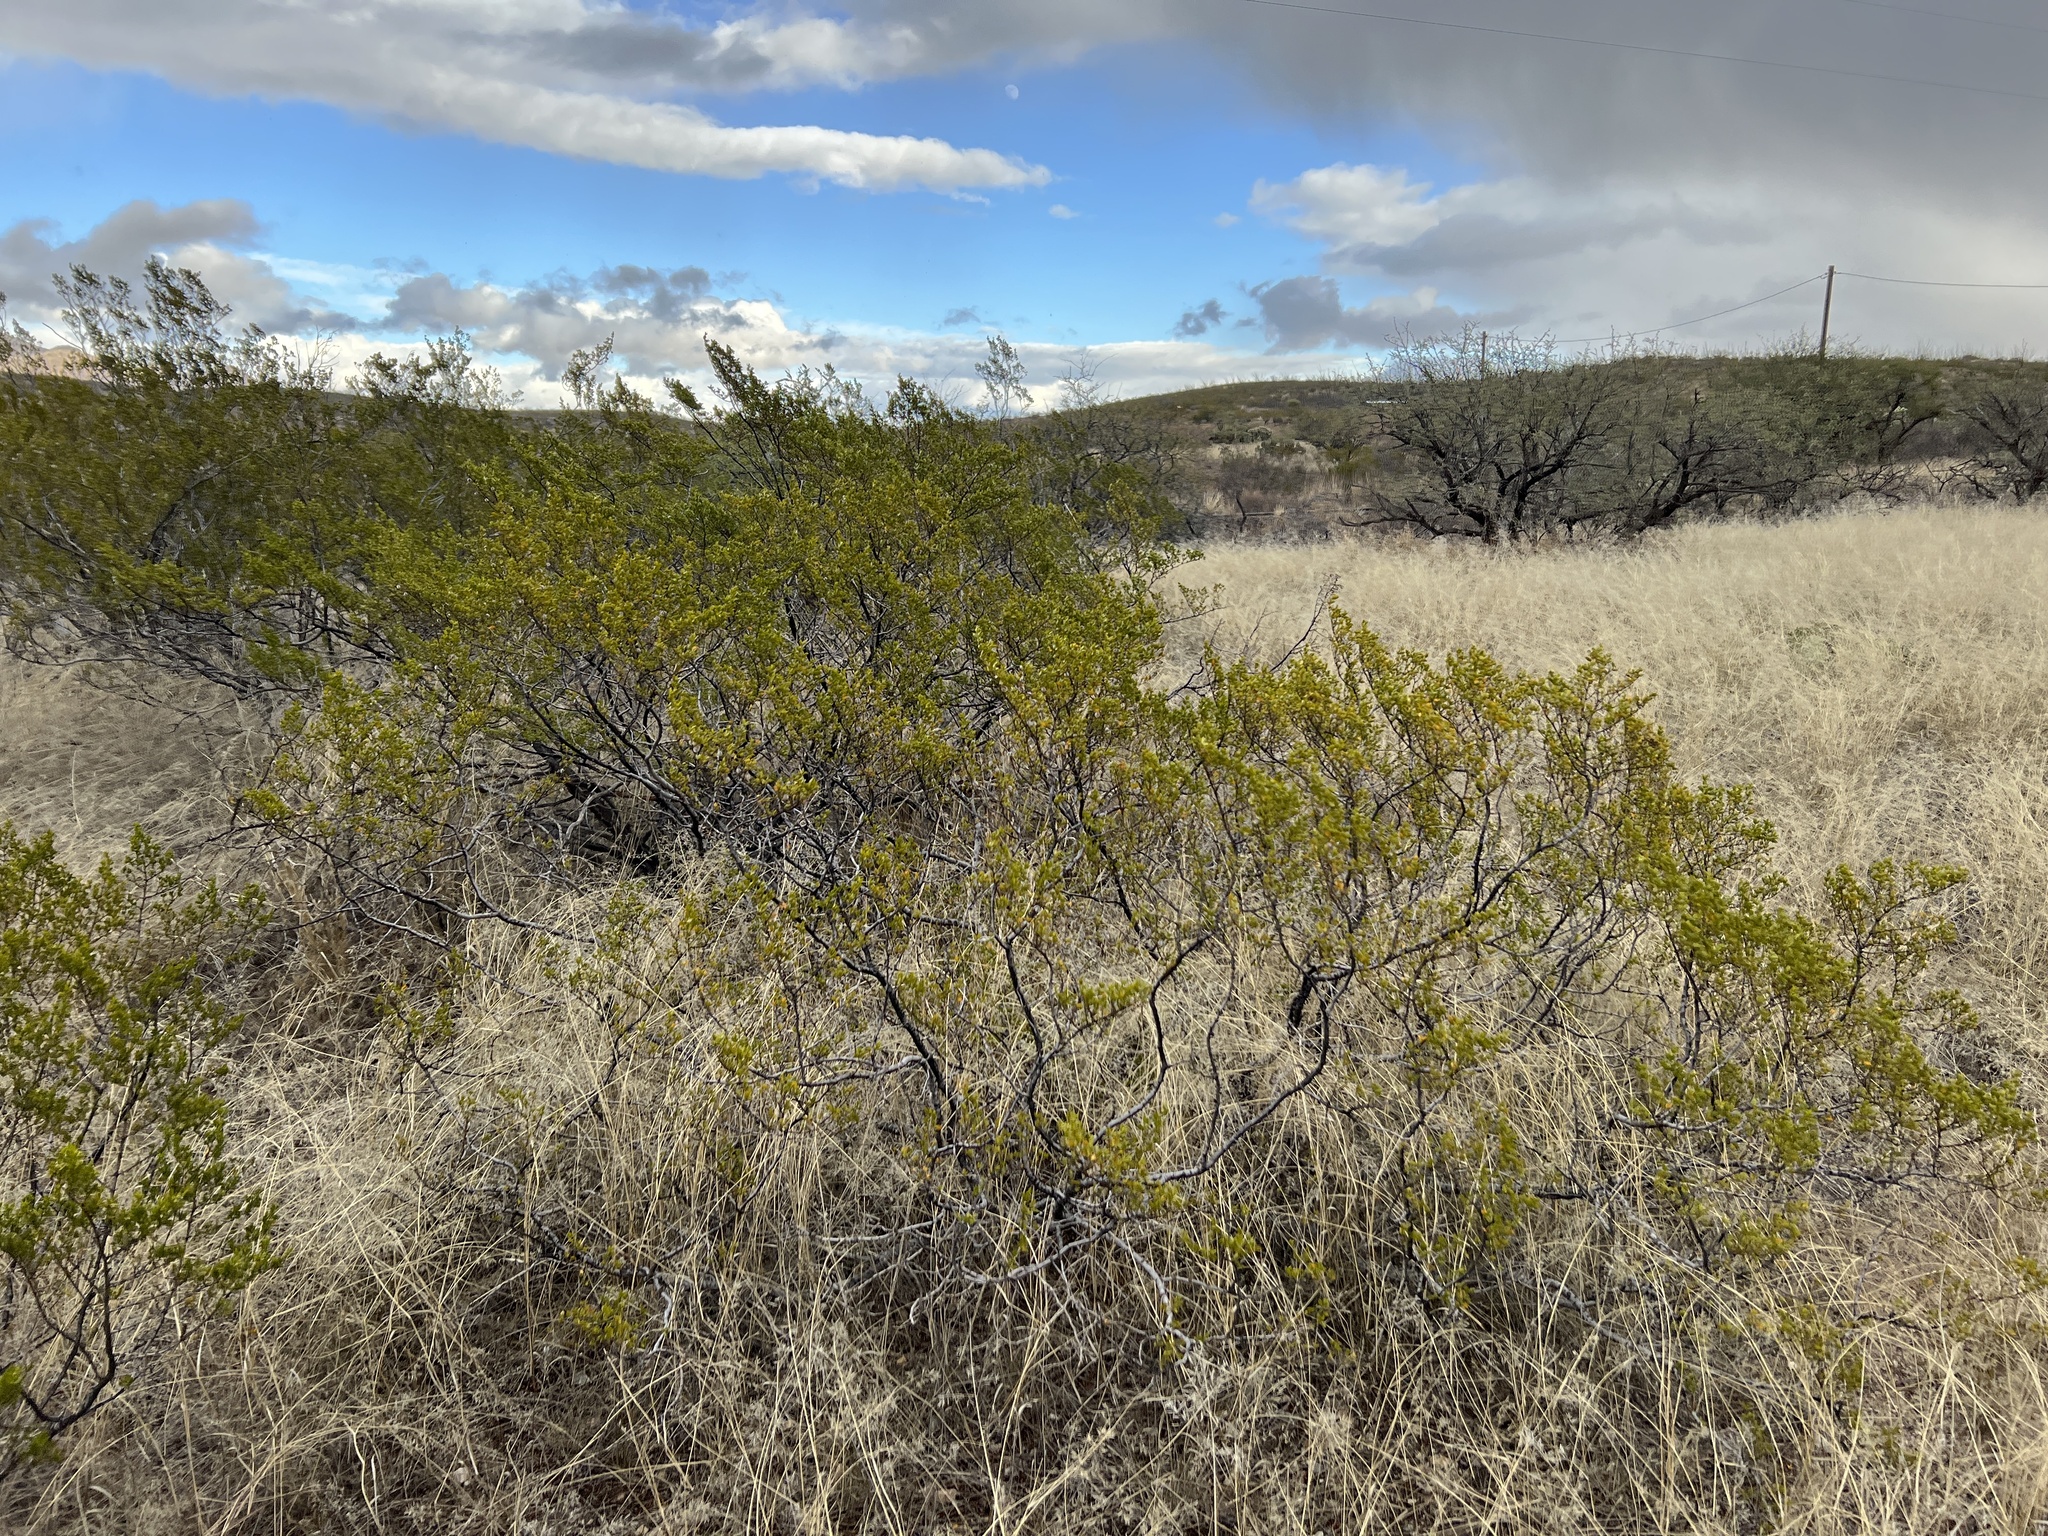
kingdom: Plantae
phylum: Tracheophyta
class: Magnoliopsida
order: Zygophyllales
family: Zygophyllaceae
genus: Larrea
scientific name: Larrea tridentata
